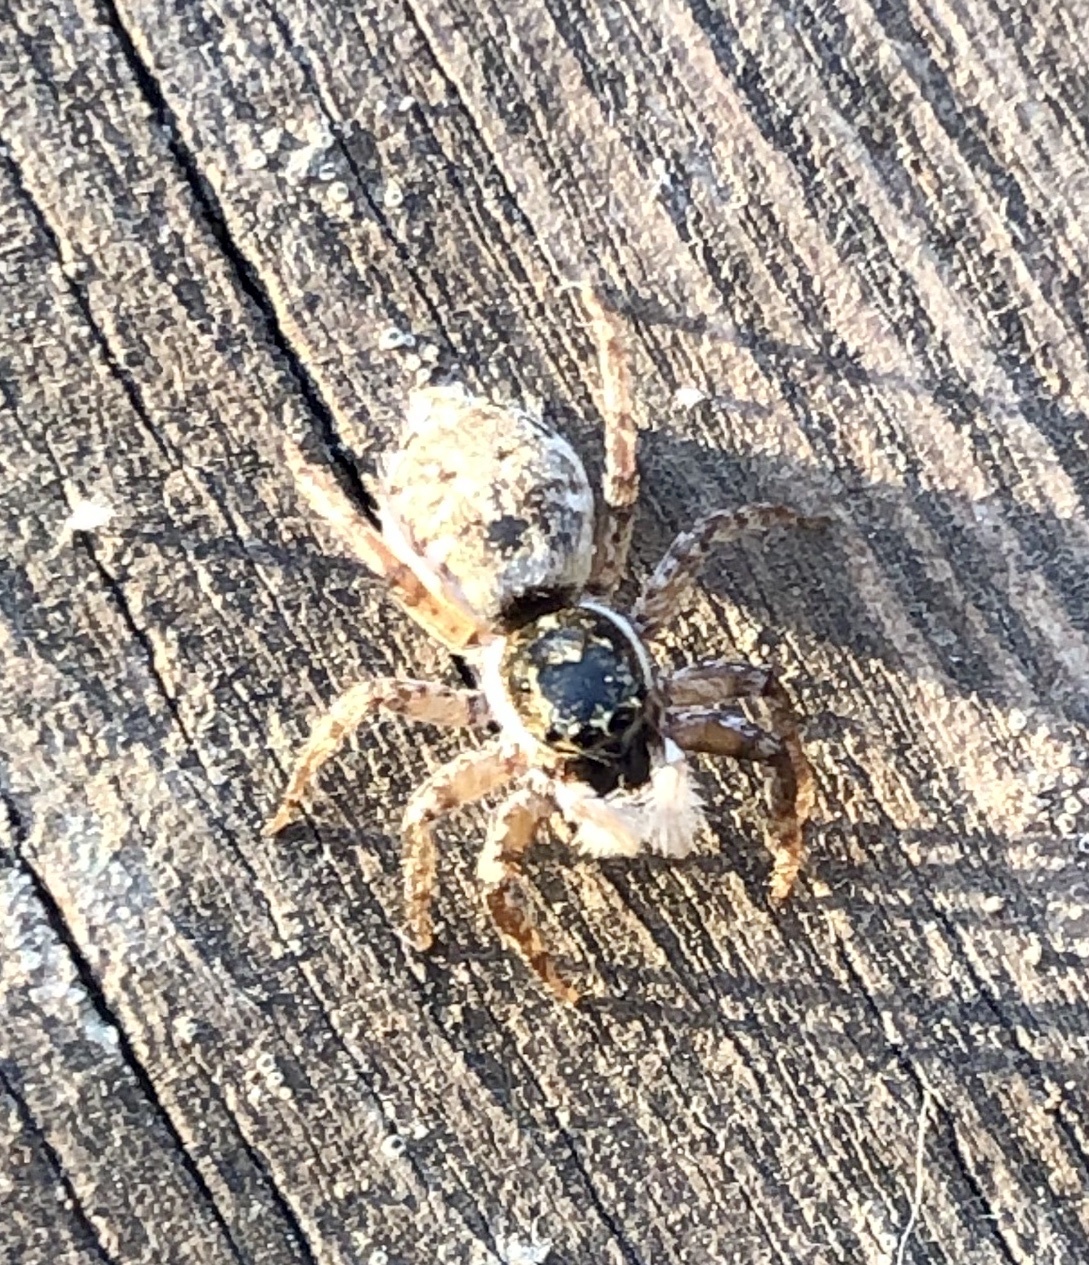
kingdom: Animalia
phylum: Arthropoda
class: Arachnida
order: Araneae
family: Salticidae
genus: Menemerus
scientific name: Menemerus semilimbatus
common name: Jumping spider
